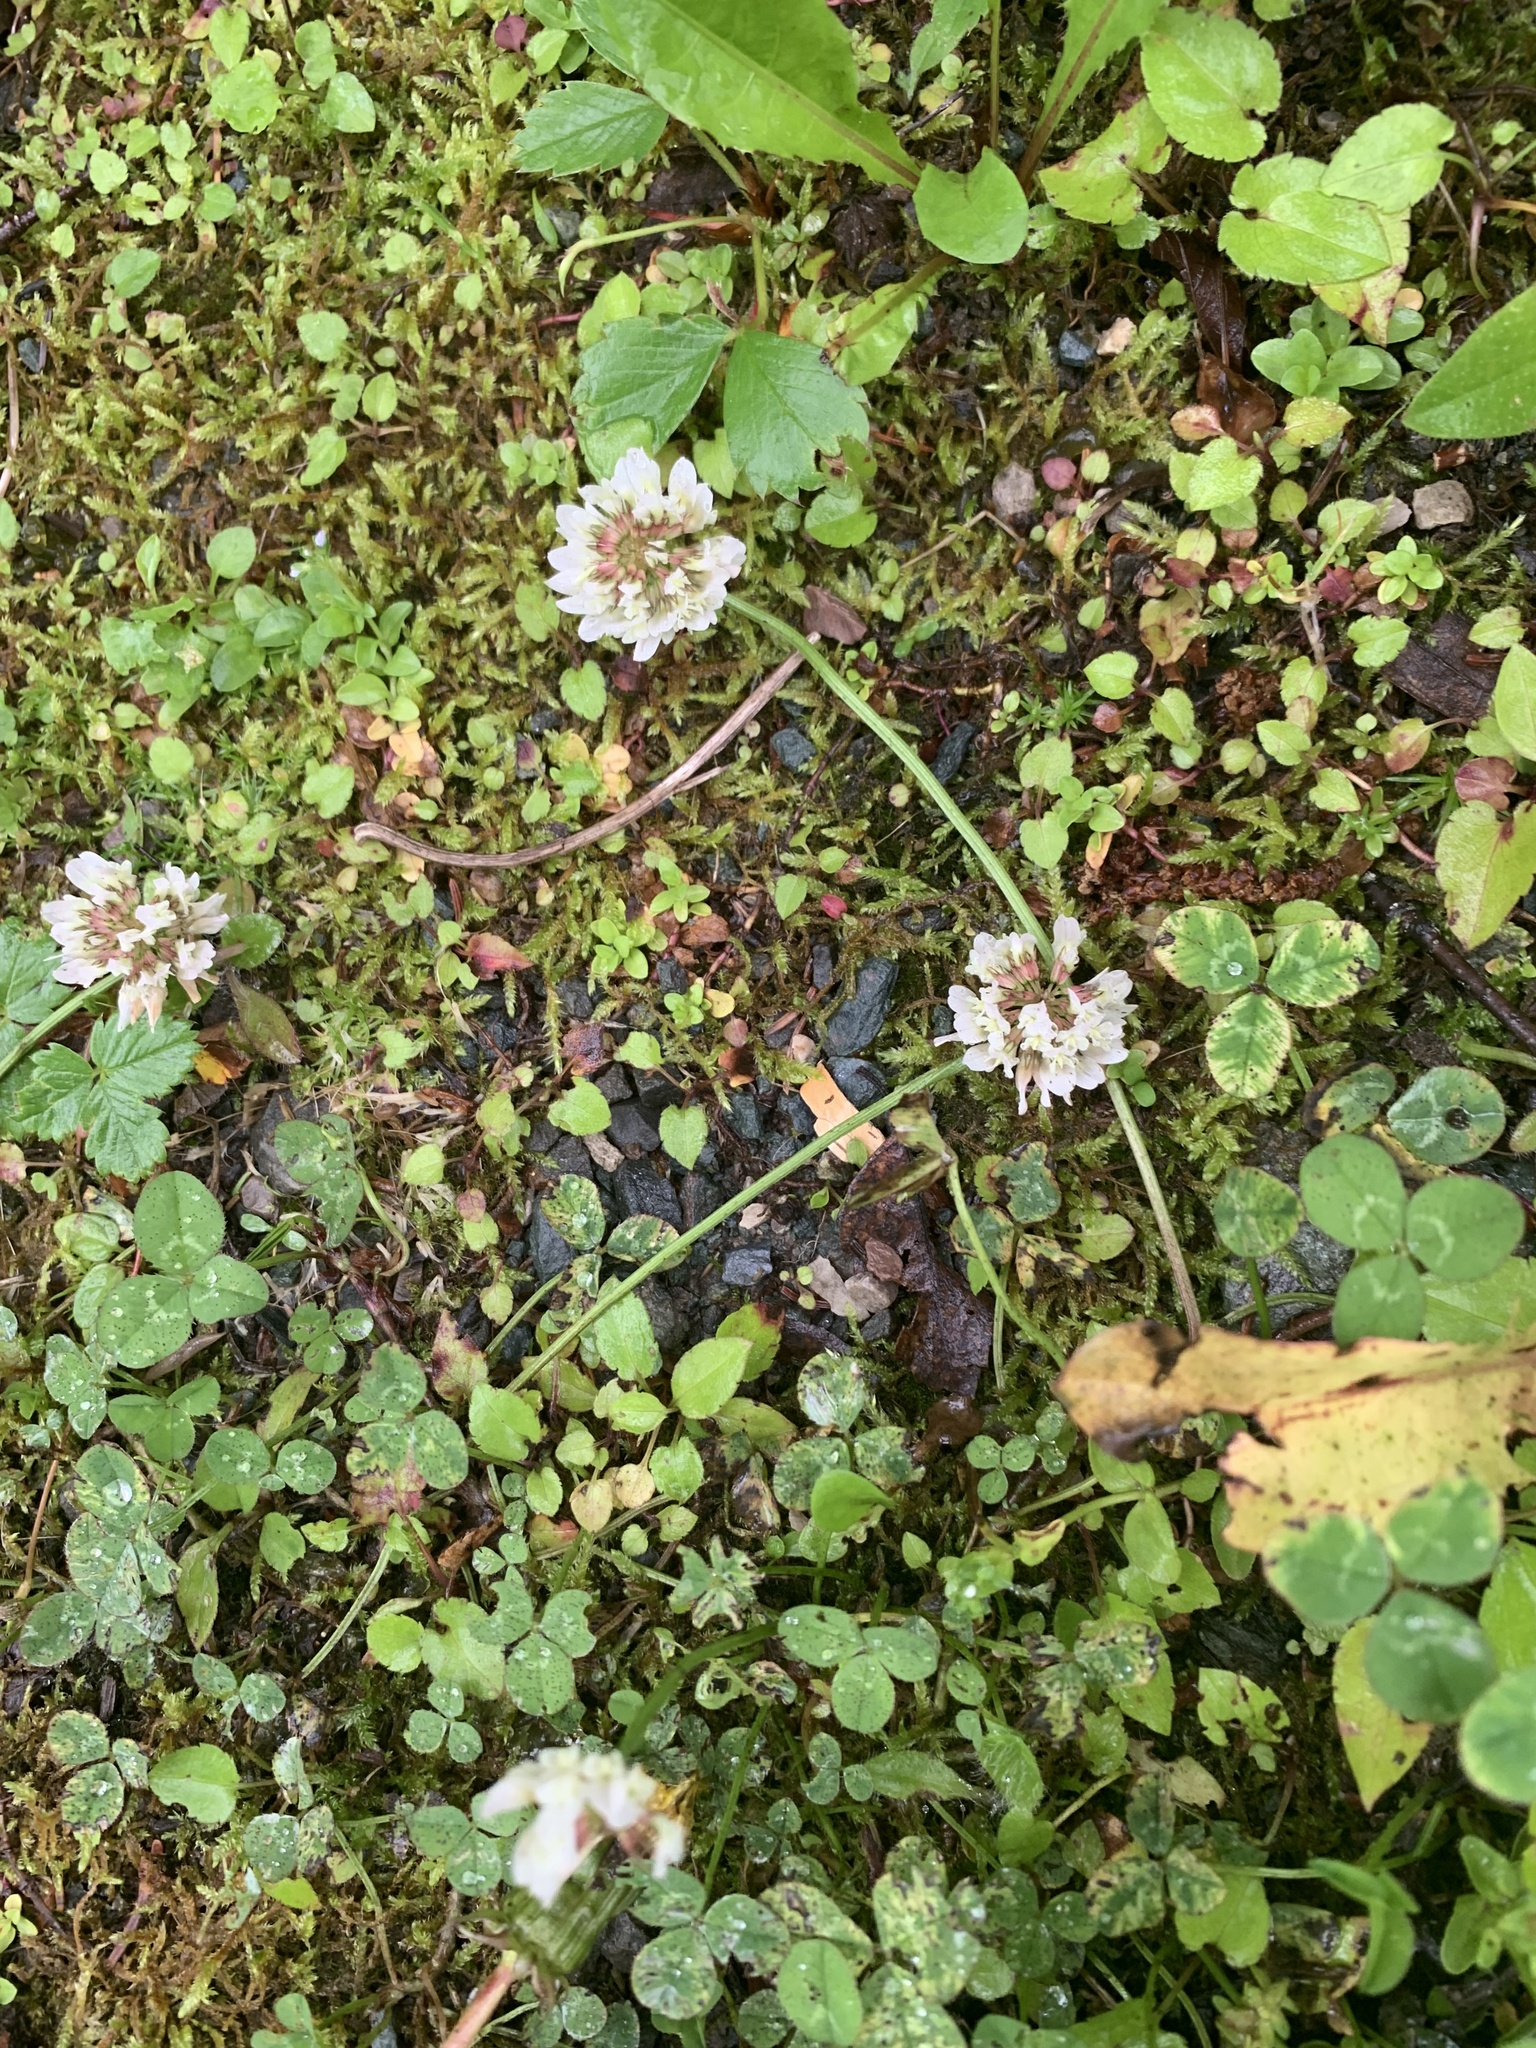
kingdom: Plantae
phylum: Tracheophyta
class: Magnoliopsida
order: Fabales
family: Fabaceae
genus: Trifolium
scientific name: Trifolium repens
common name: White clover
